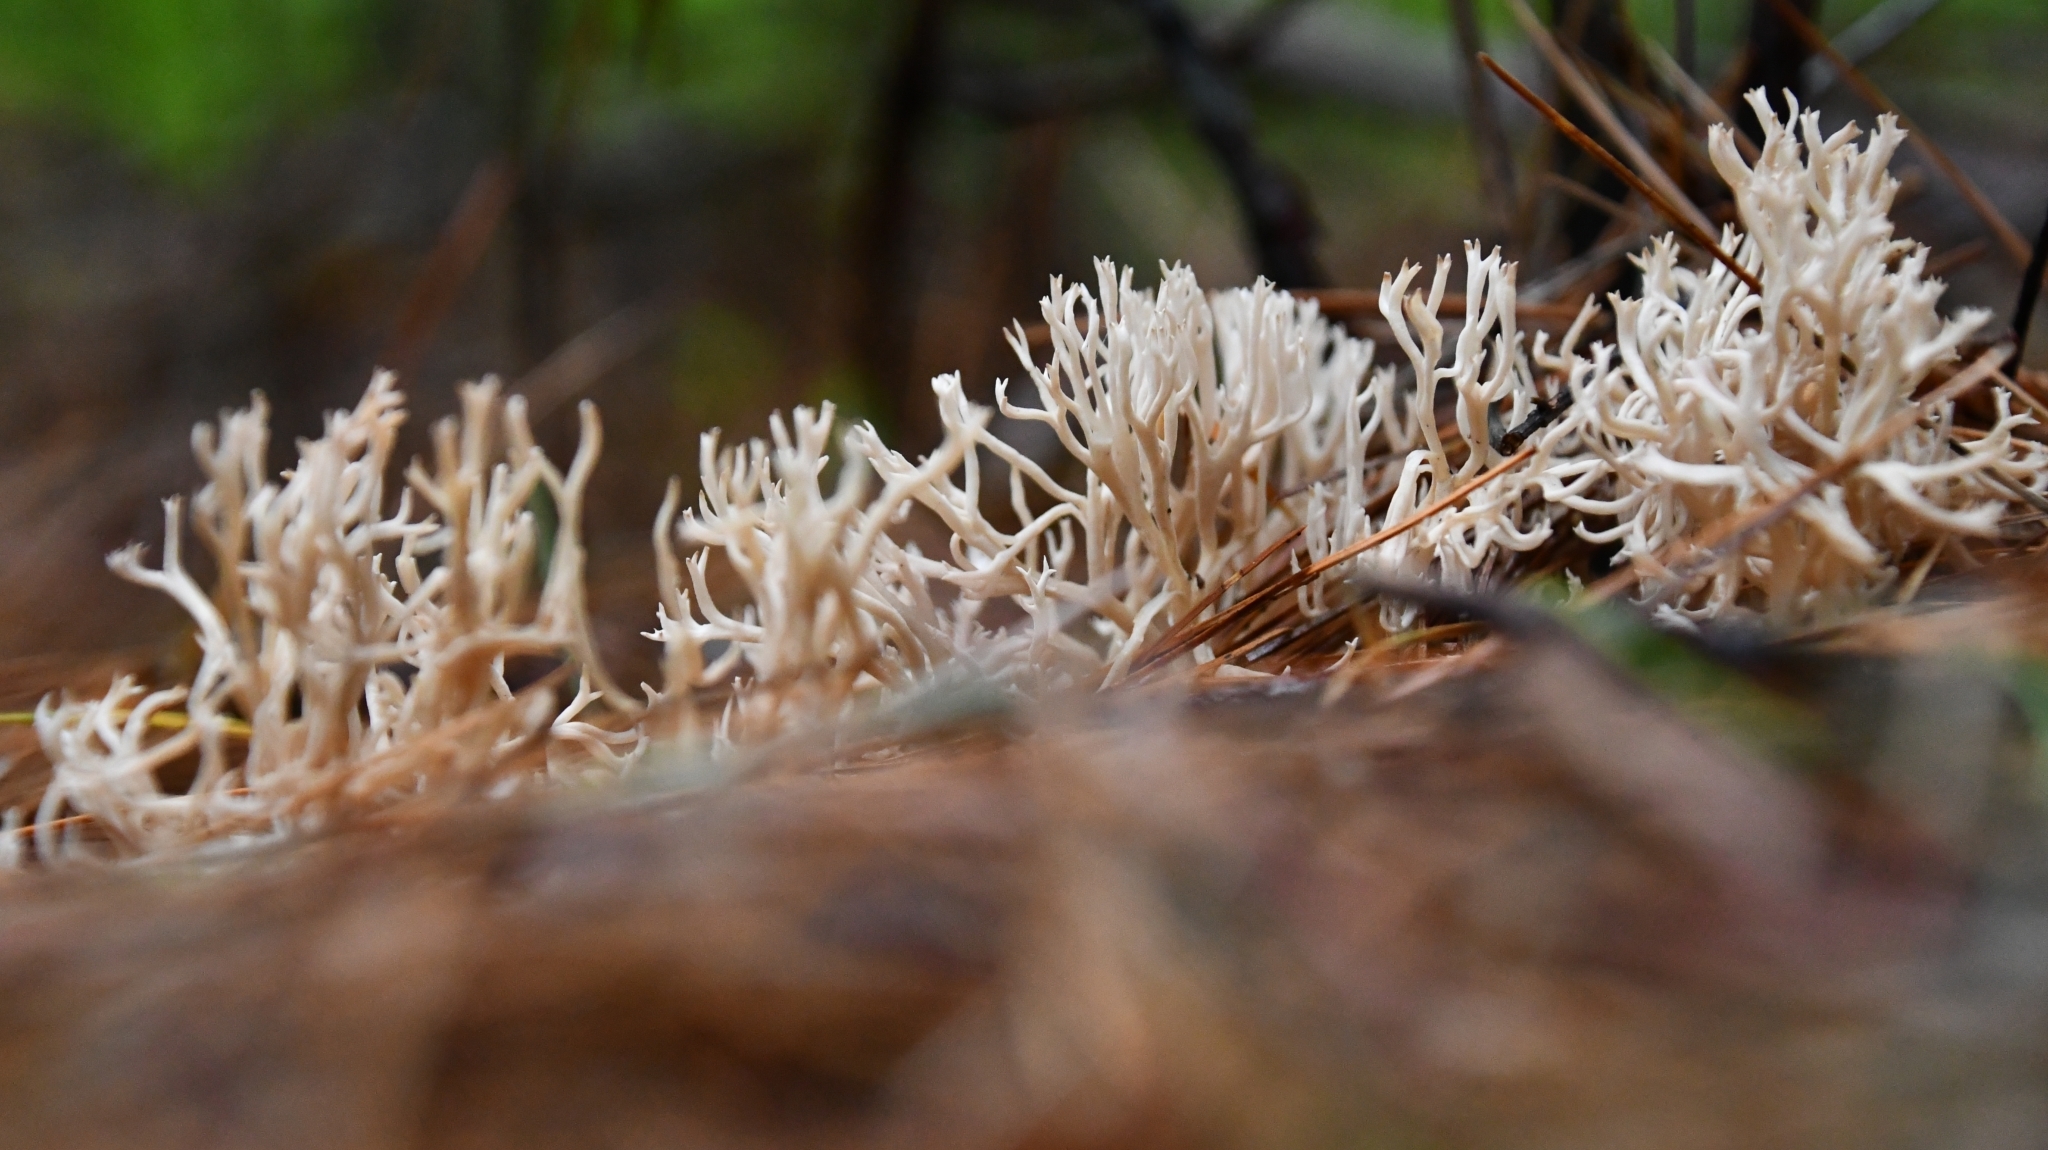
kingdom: Fungi
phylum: Basidiomycota
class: Agaricomycetes
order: Gomphales
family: Gomphaceae
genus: Ramaria
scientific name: Ramaria gracilis
